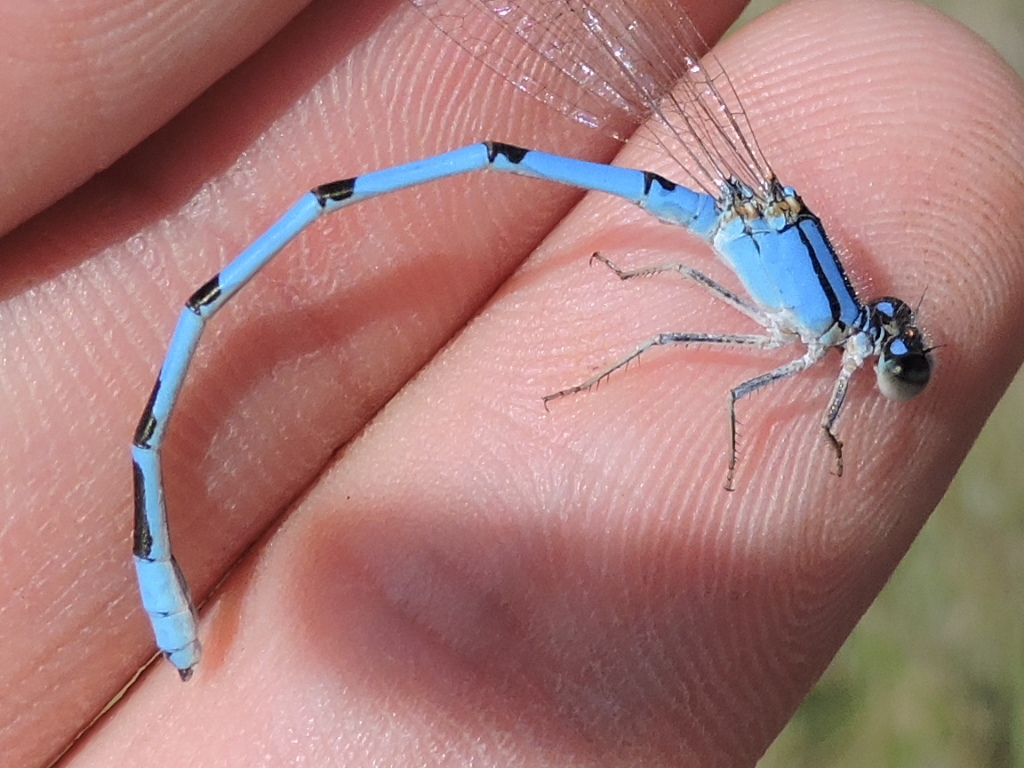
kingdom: Animalia
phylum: Arthropoda
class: Insecta
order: Odonata
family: Coenagrionidae
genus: Enallagma
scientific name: Enallagma civile
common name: Damselfly
